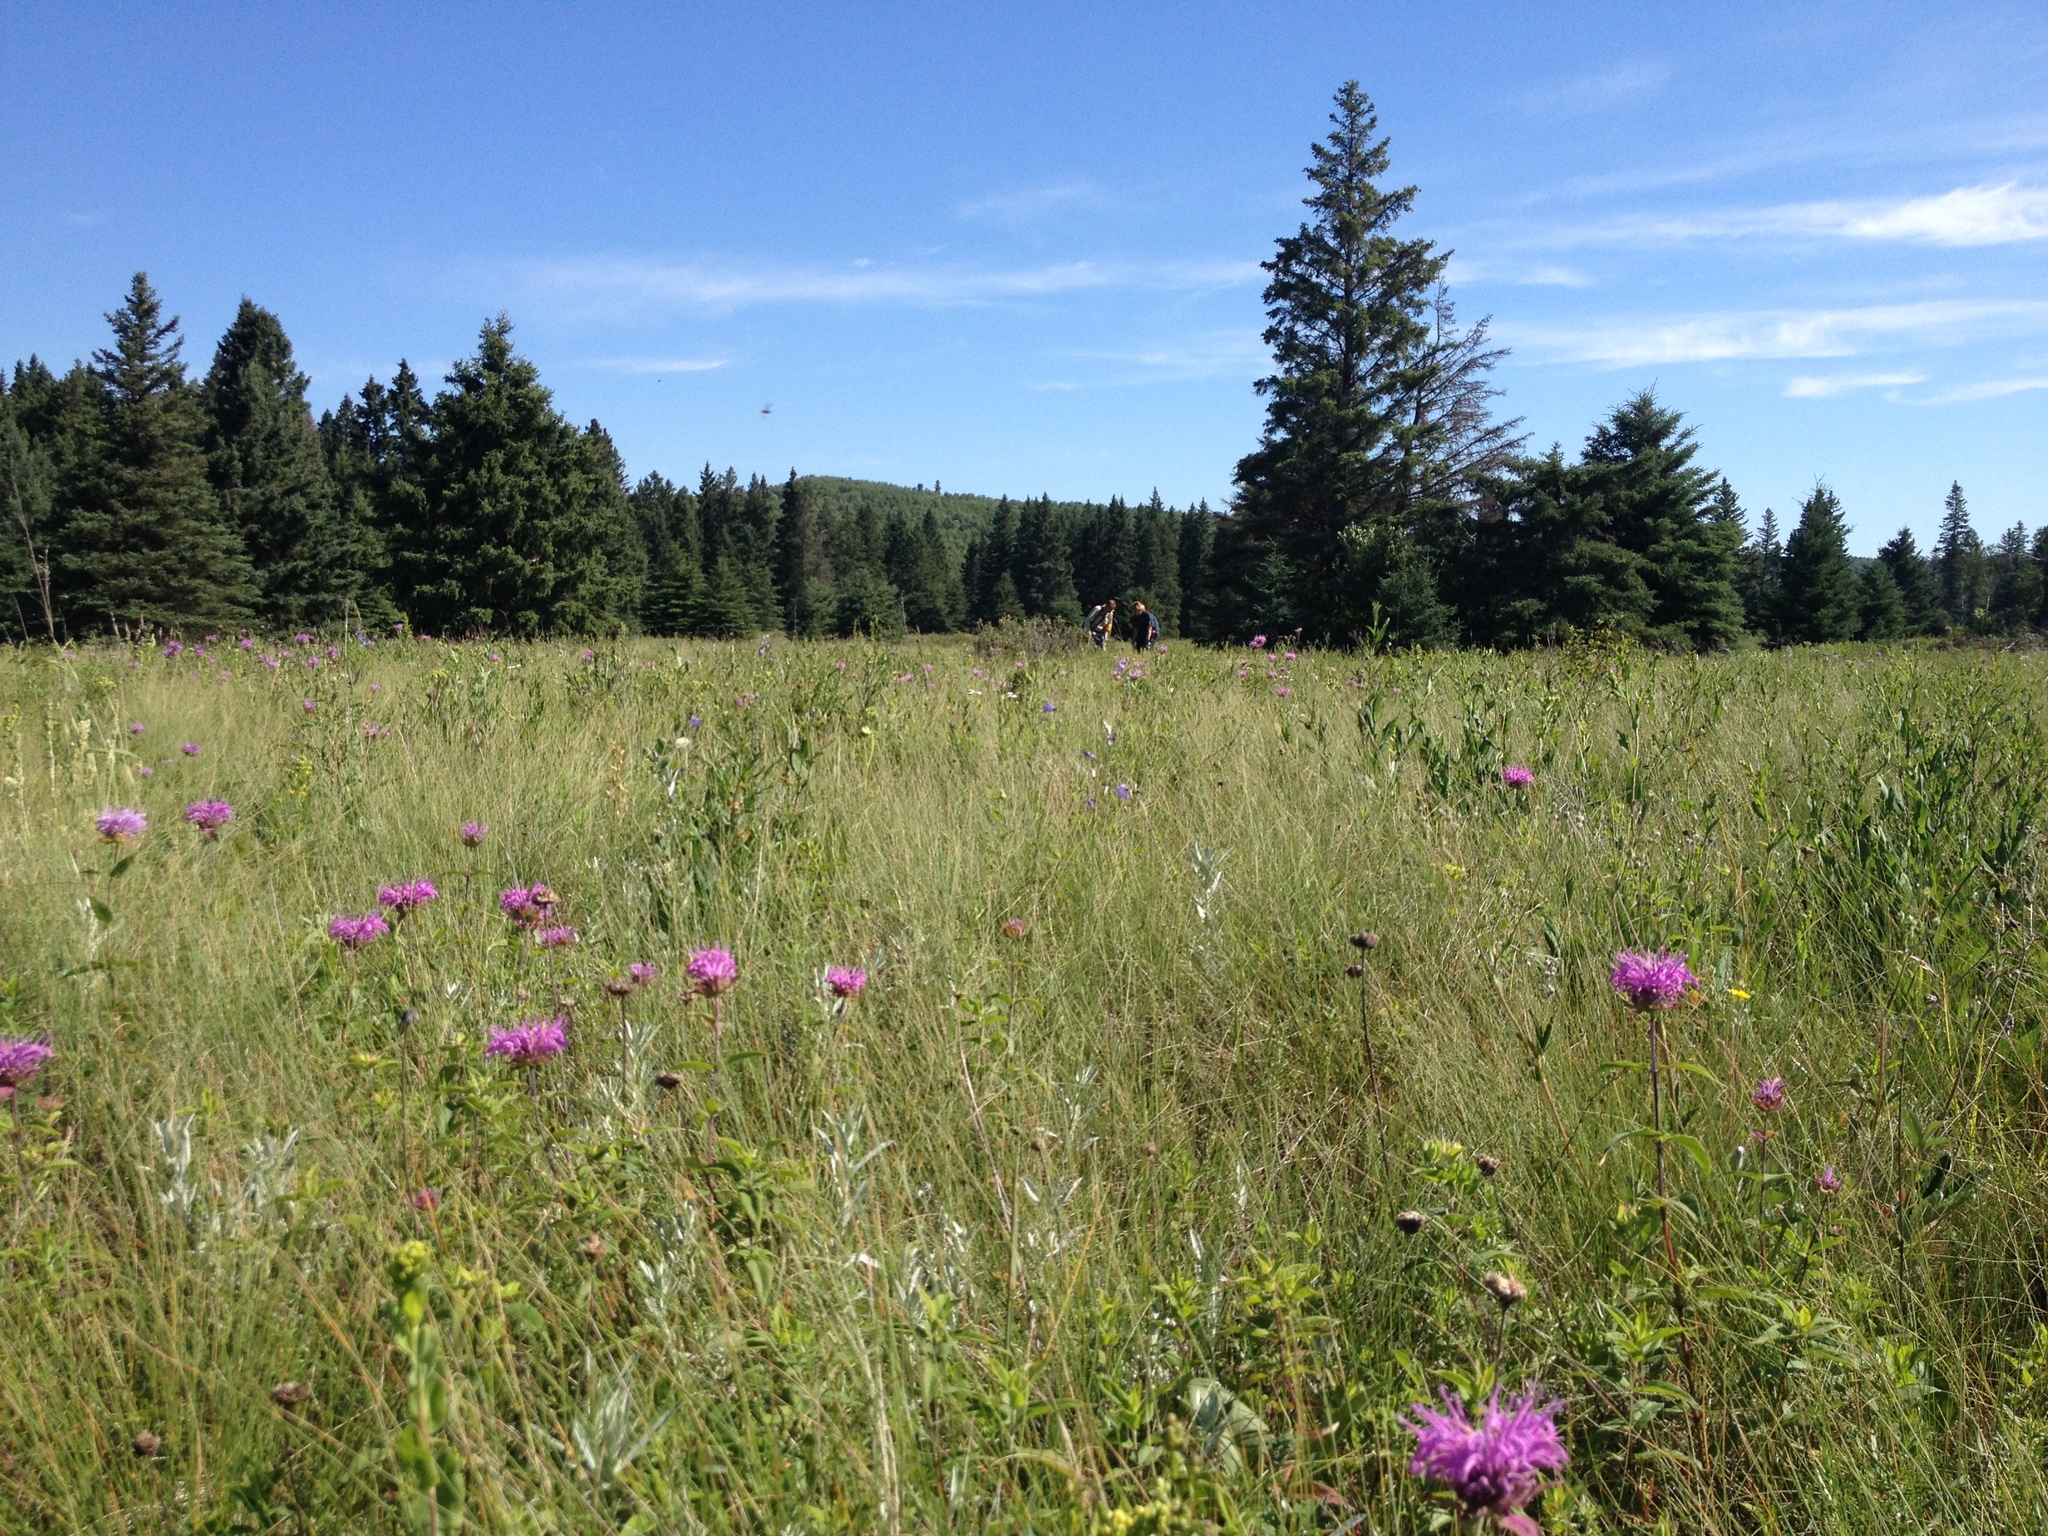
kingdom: Plantae
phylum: Tracheophyta
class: Magnoliopsida
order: Lamiales
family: Lamiaceae
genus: Monarda
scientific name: Monarda fistulosa
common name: Purple beebalm
